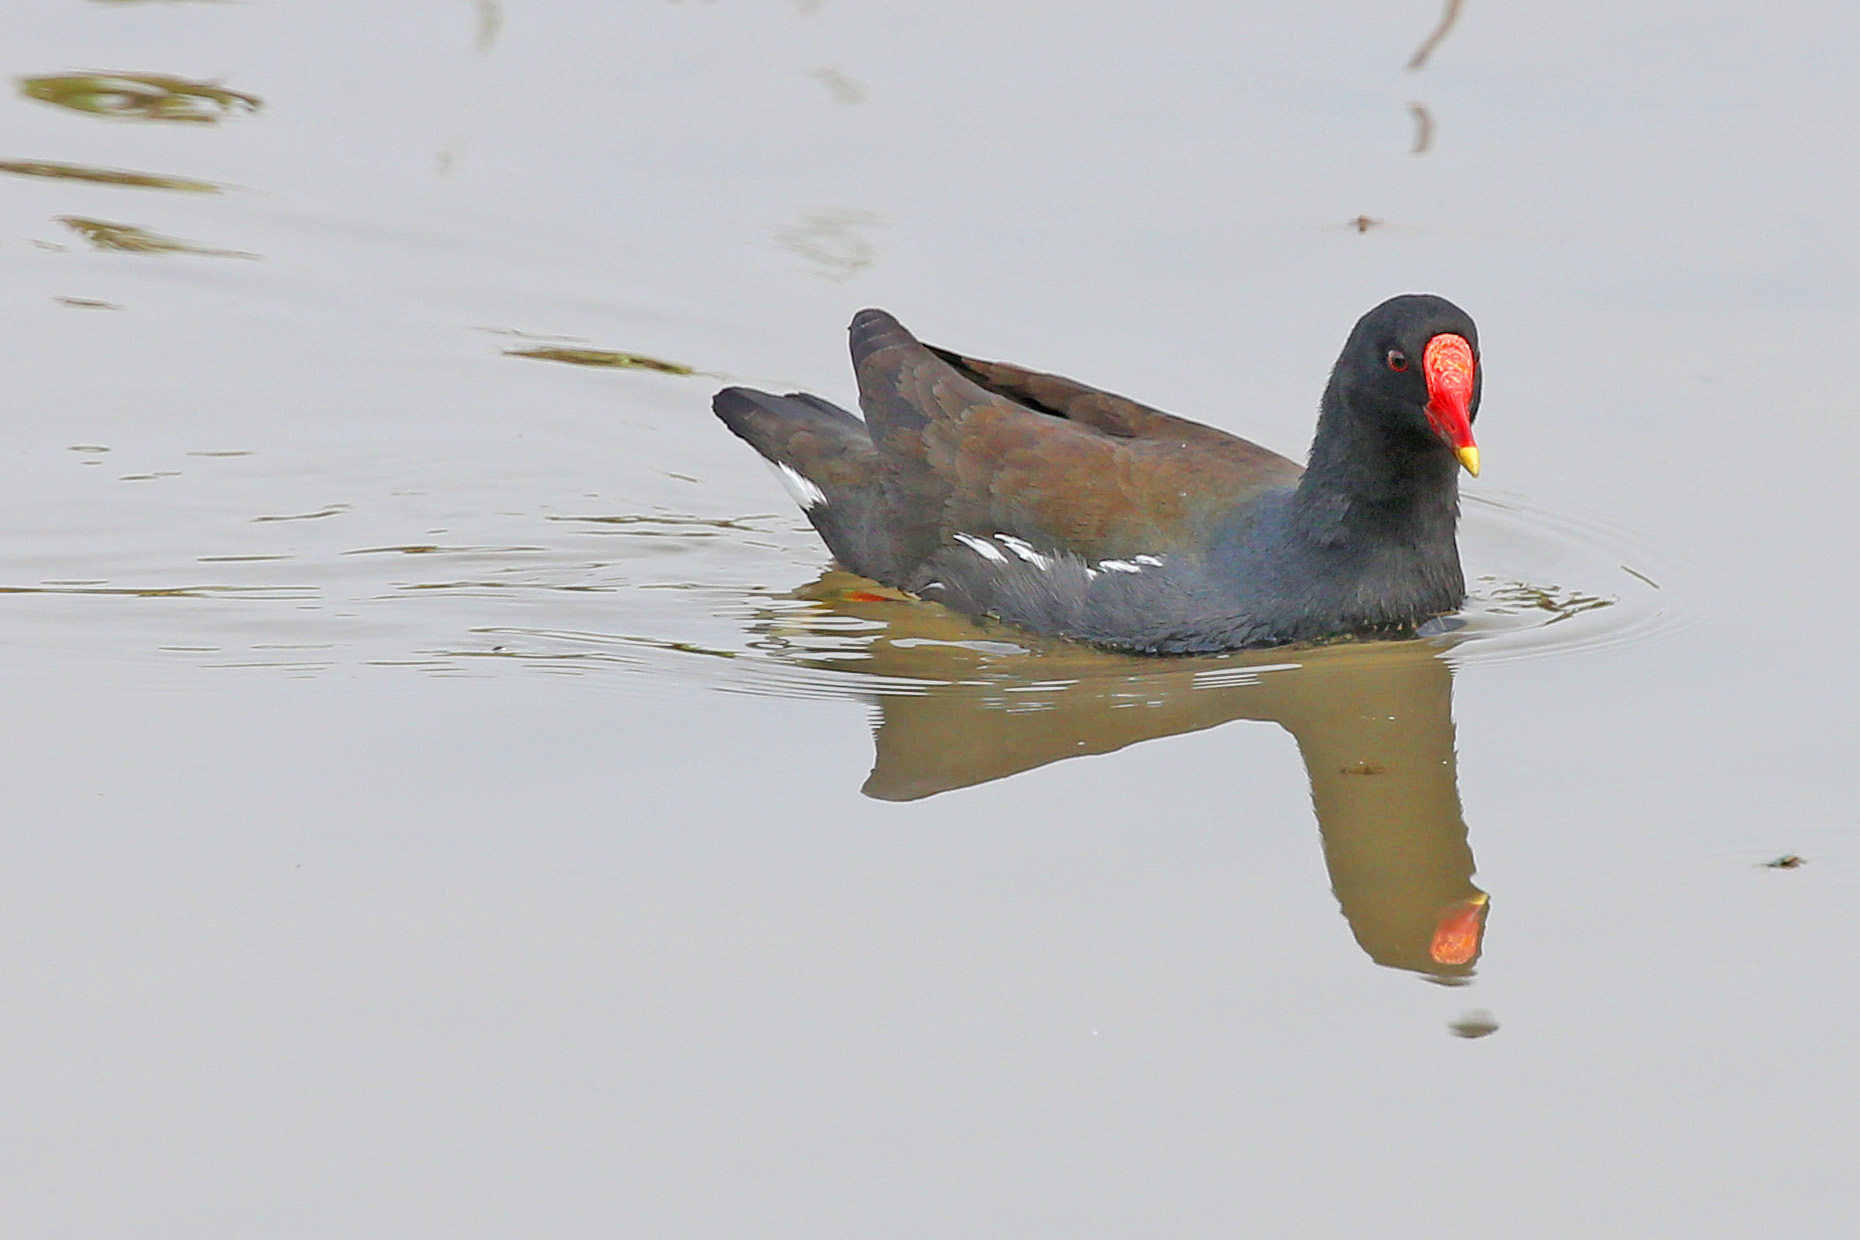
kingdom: Animalia
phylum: Chordata
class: Aves
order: Gruiformes
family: Rallidae
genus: Gallinula
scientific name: Gallinula chloropus
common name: Common moorhen
